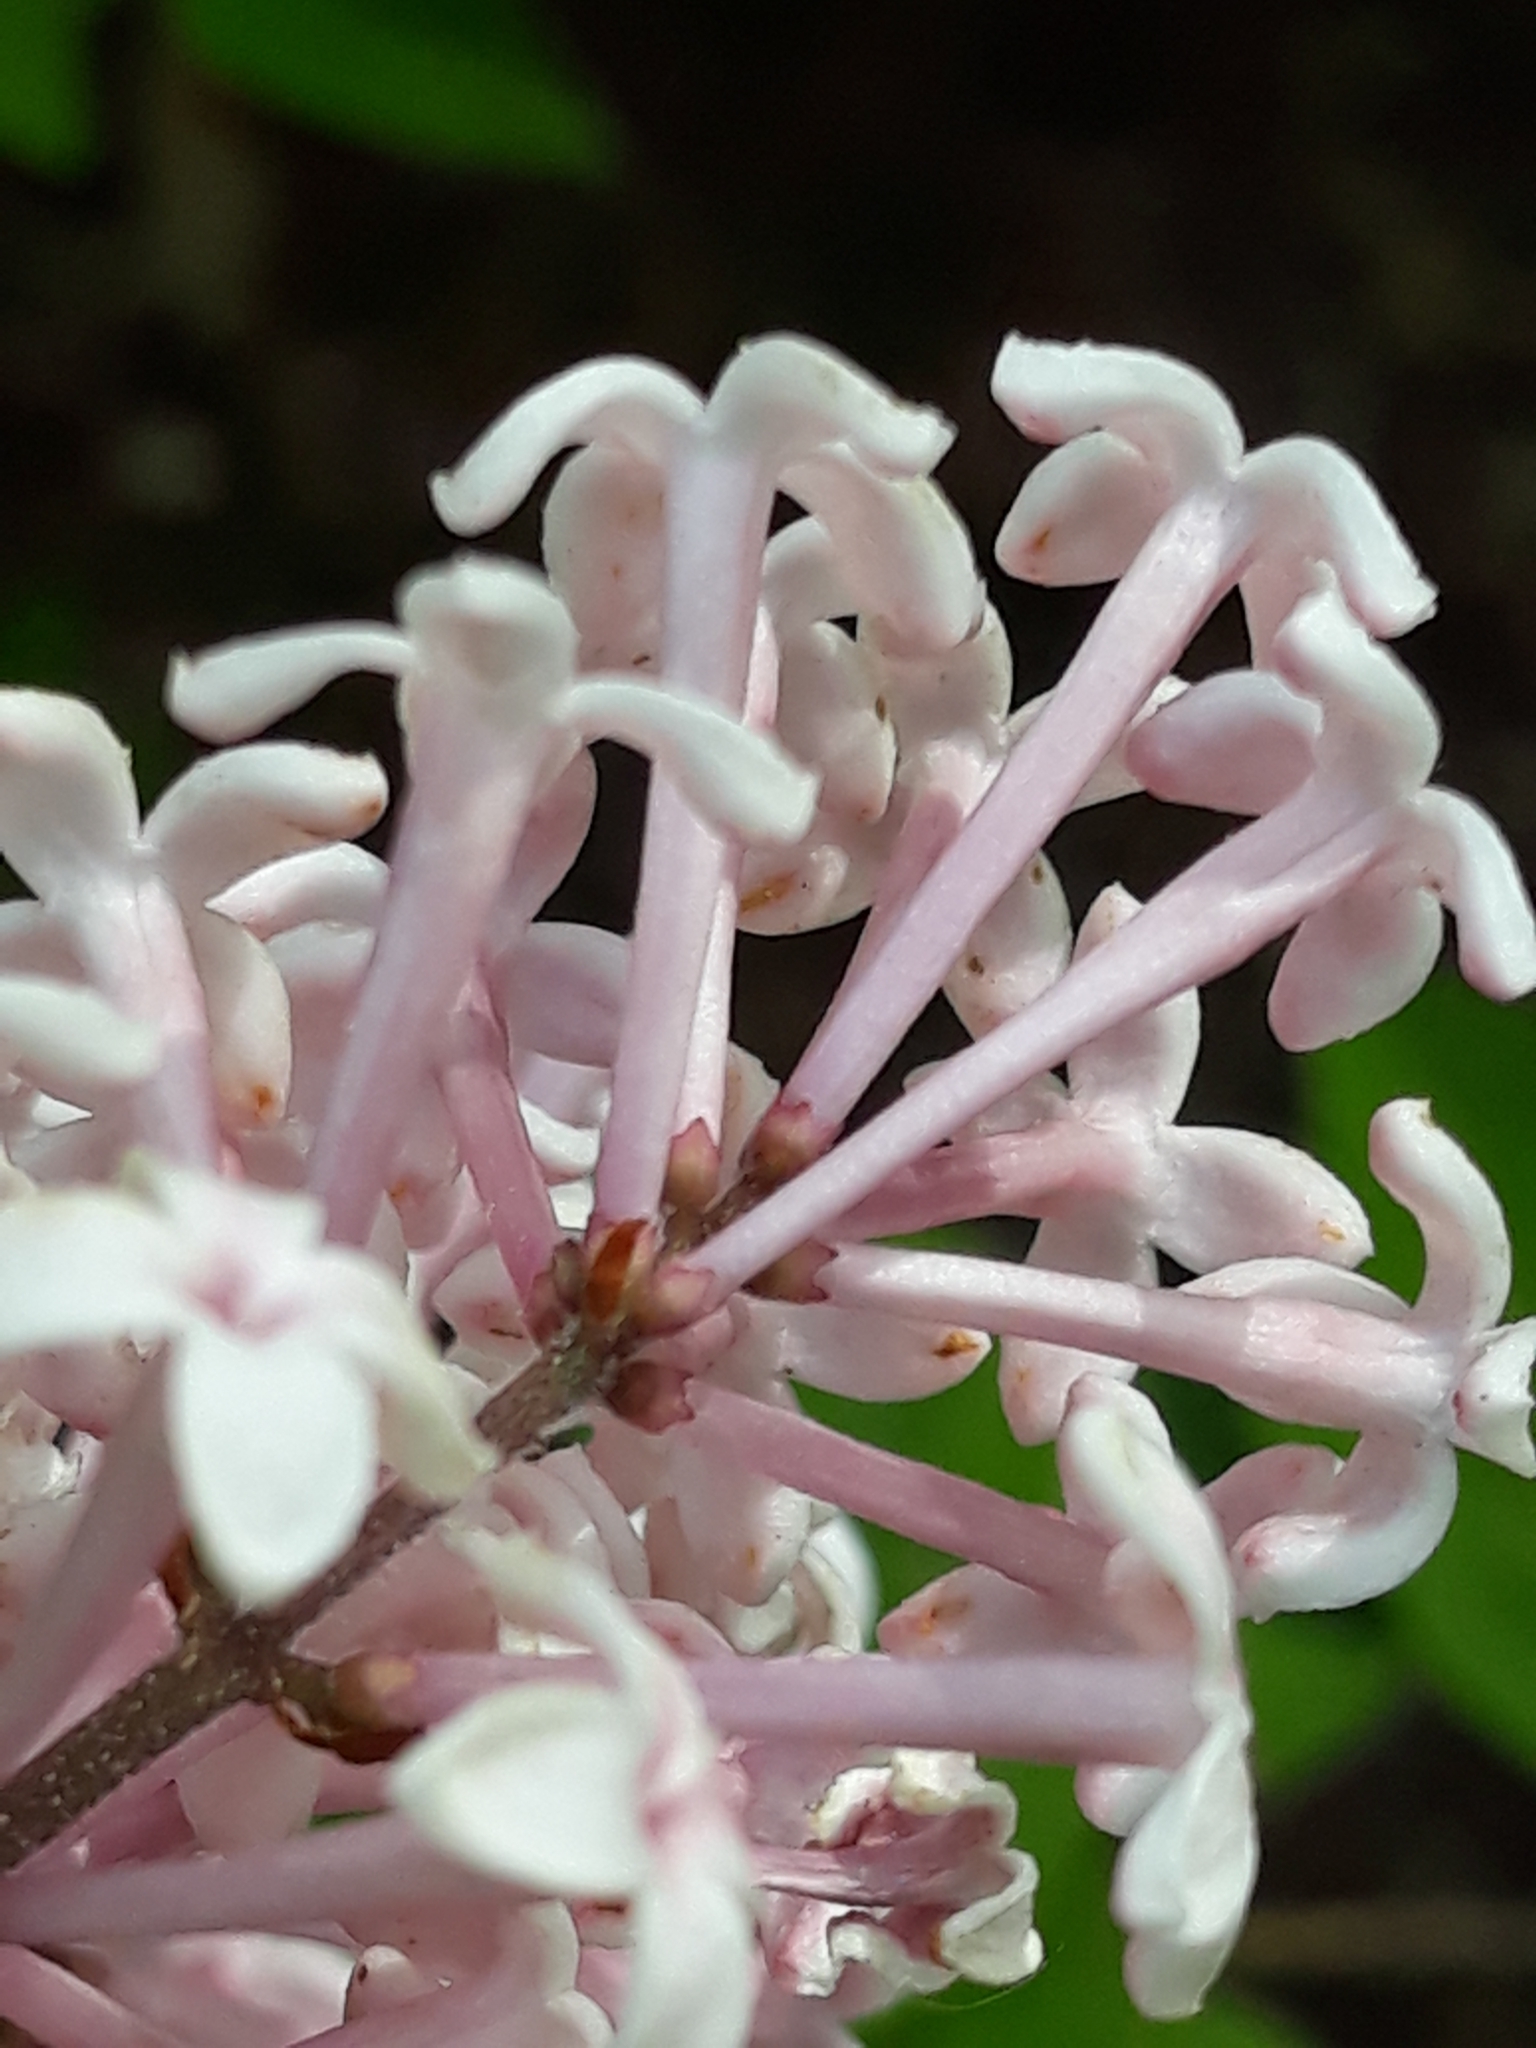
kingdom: Plantae
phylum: Tracheophyta
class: Magnoliopsida
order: Lamiales
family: Oleaceae
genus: Syringa
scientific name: Syringa vulgaris
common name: Common lilac
